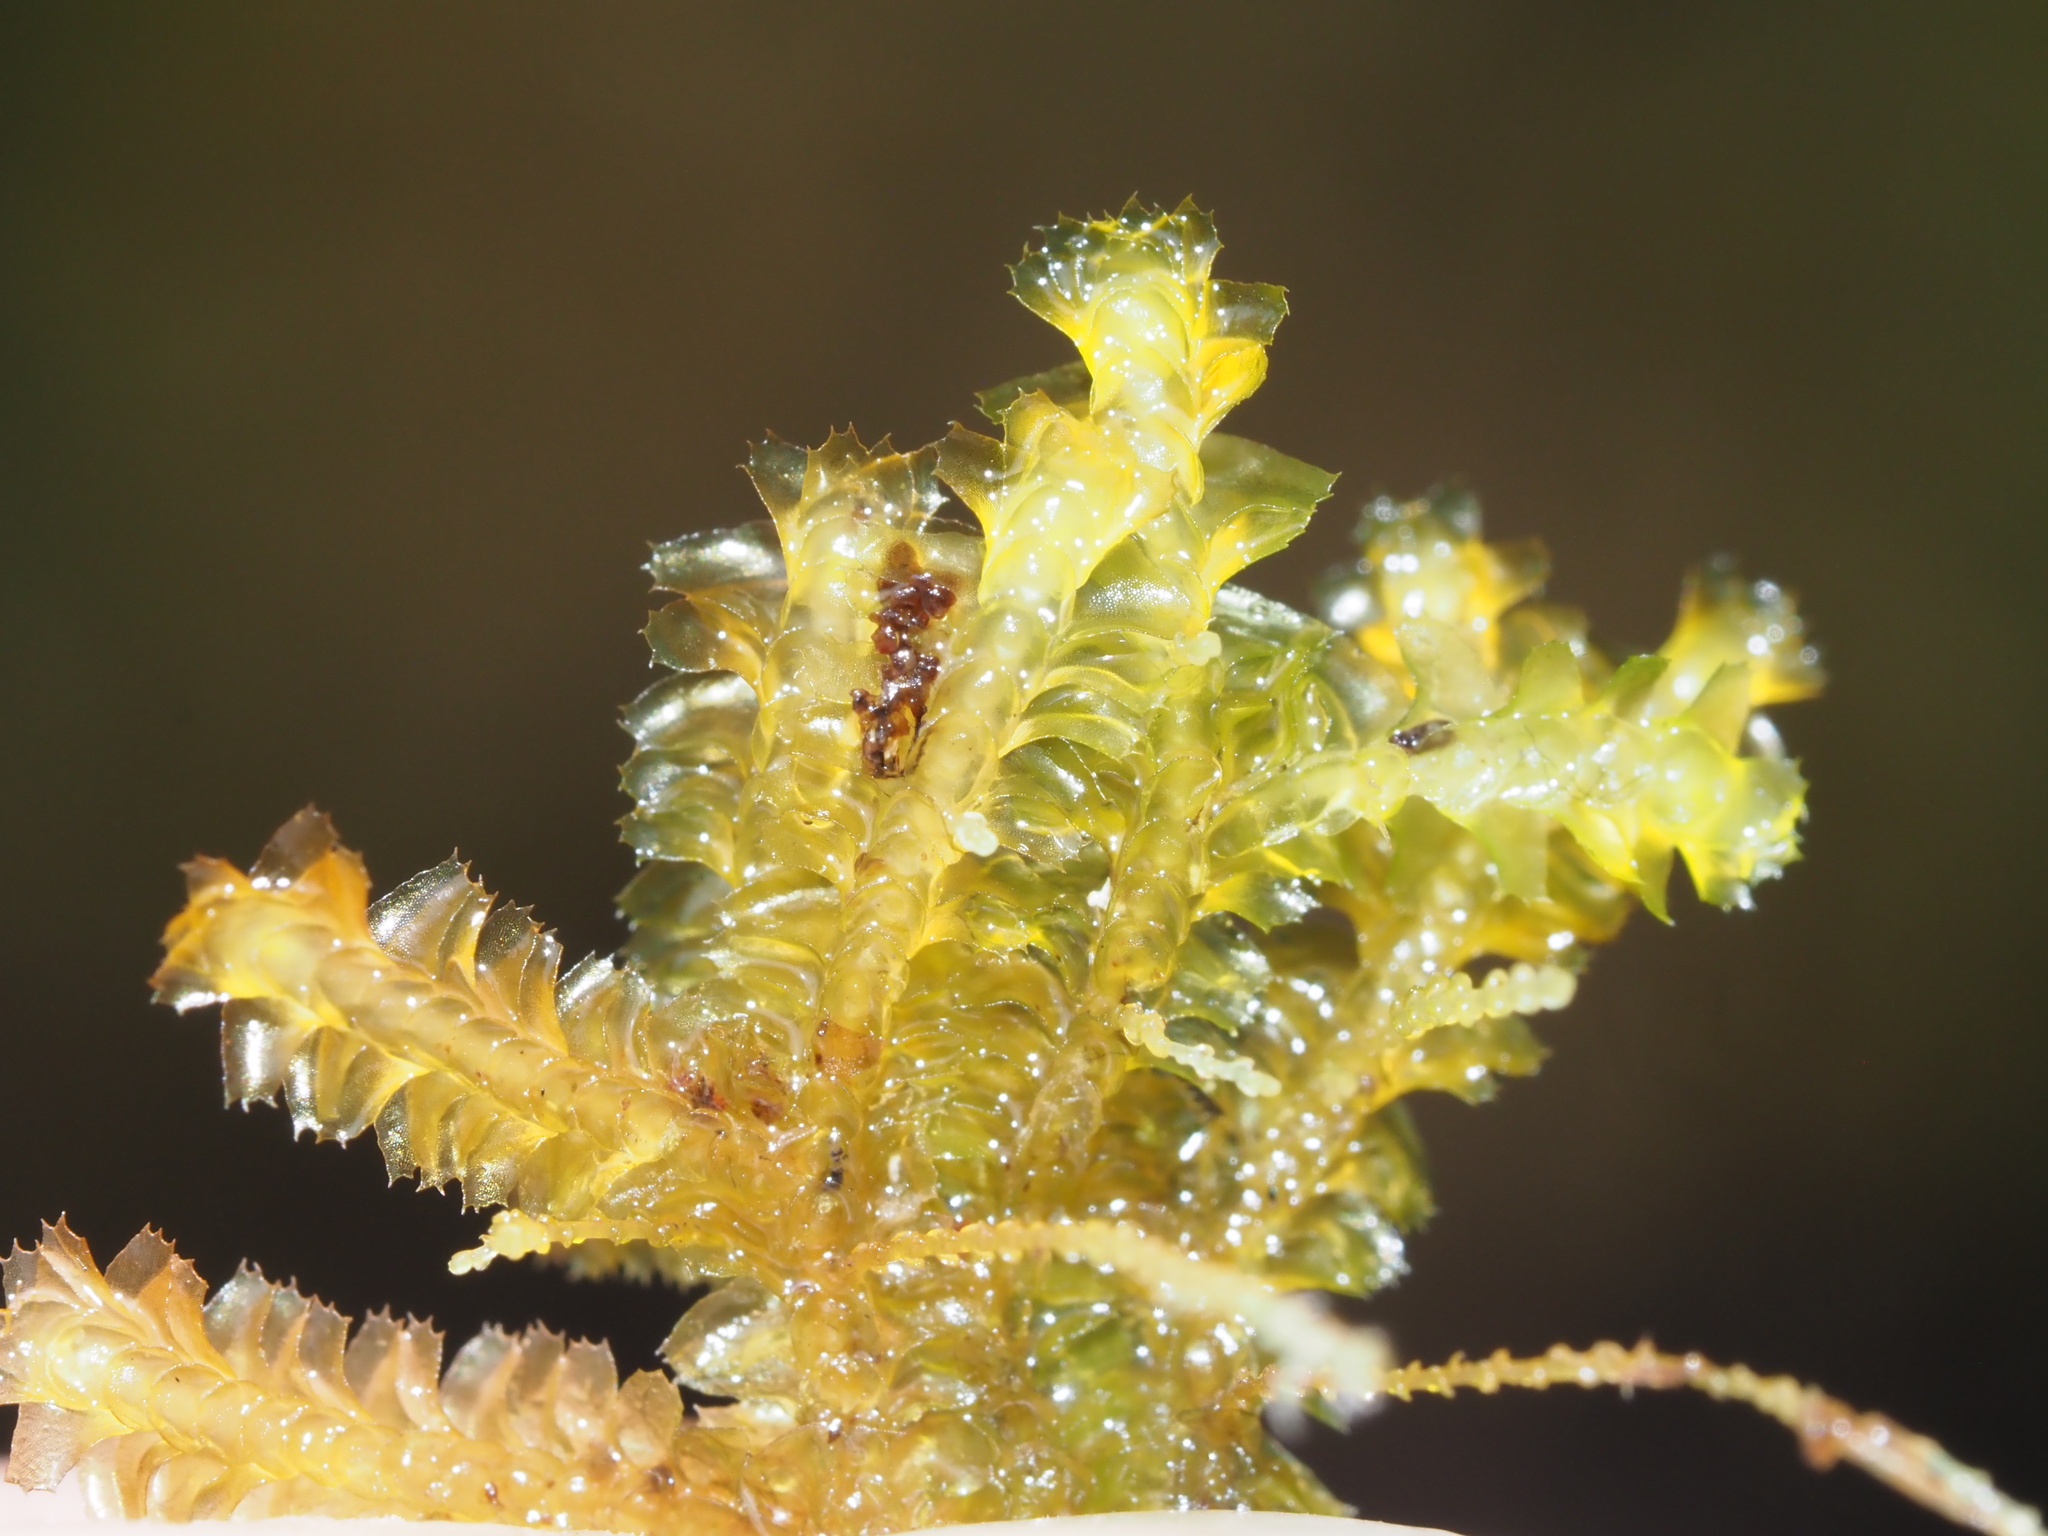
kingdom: Plantae
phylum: Marchantiophyta
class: Jungermanniopsida
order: Jungermanniales
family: Lepidoziaceae
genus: Bazzania
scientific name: Bazzania praerupta
